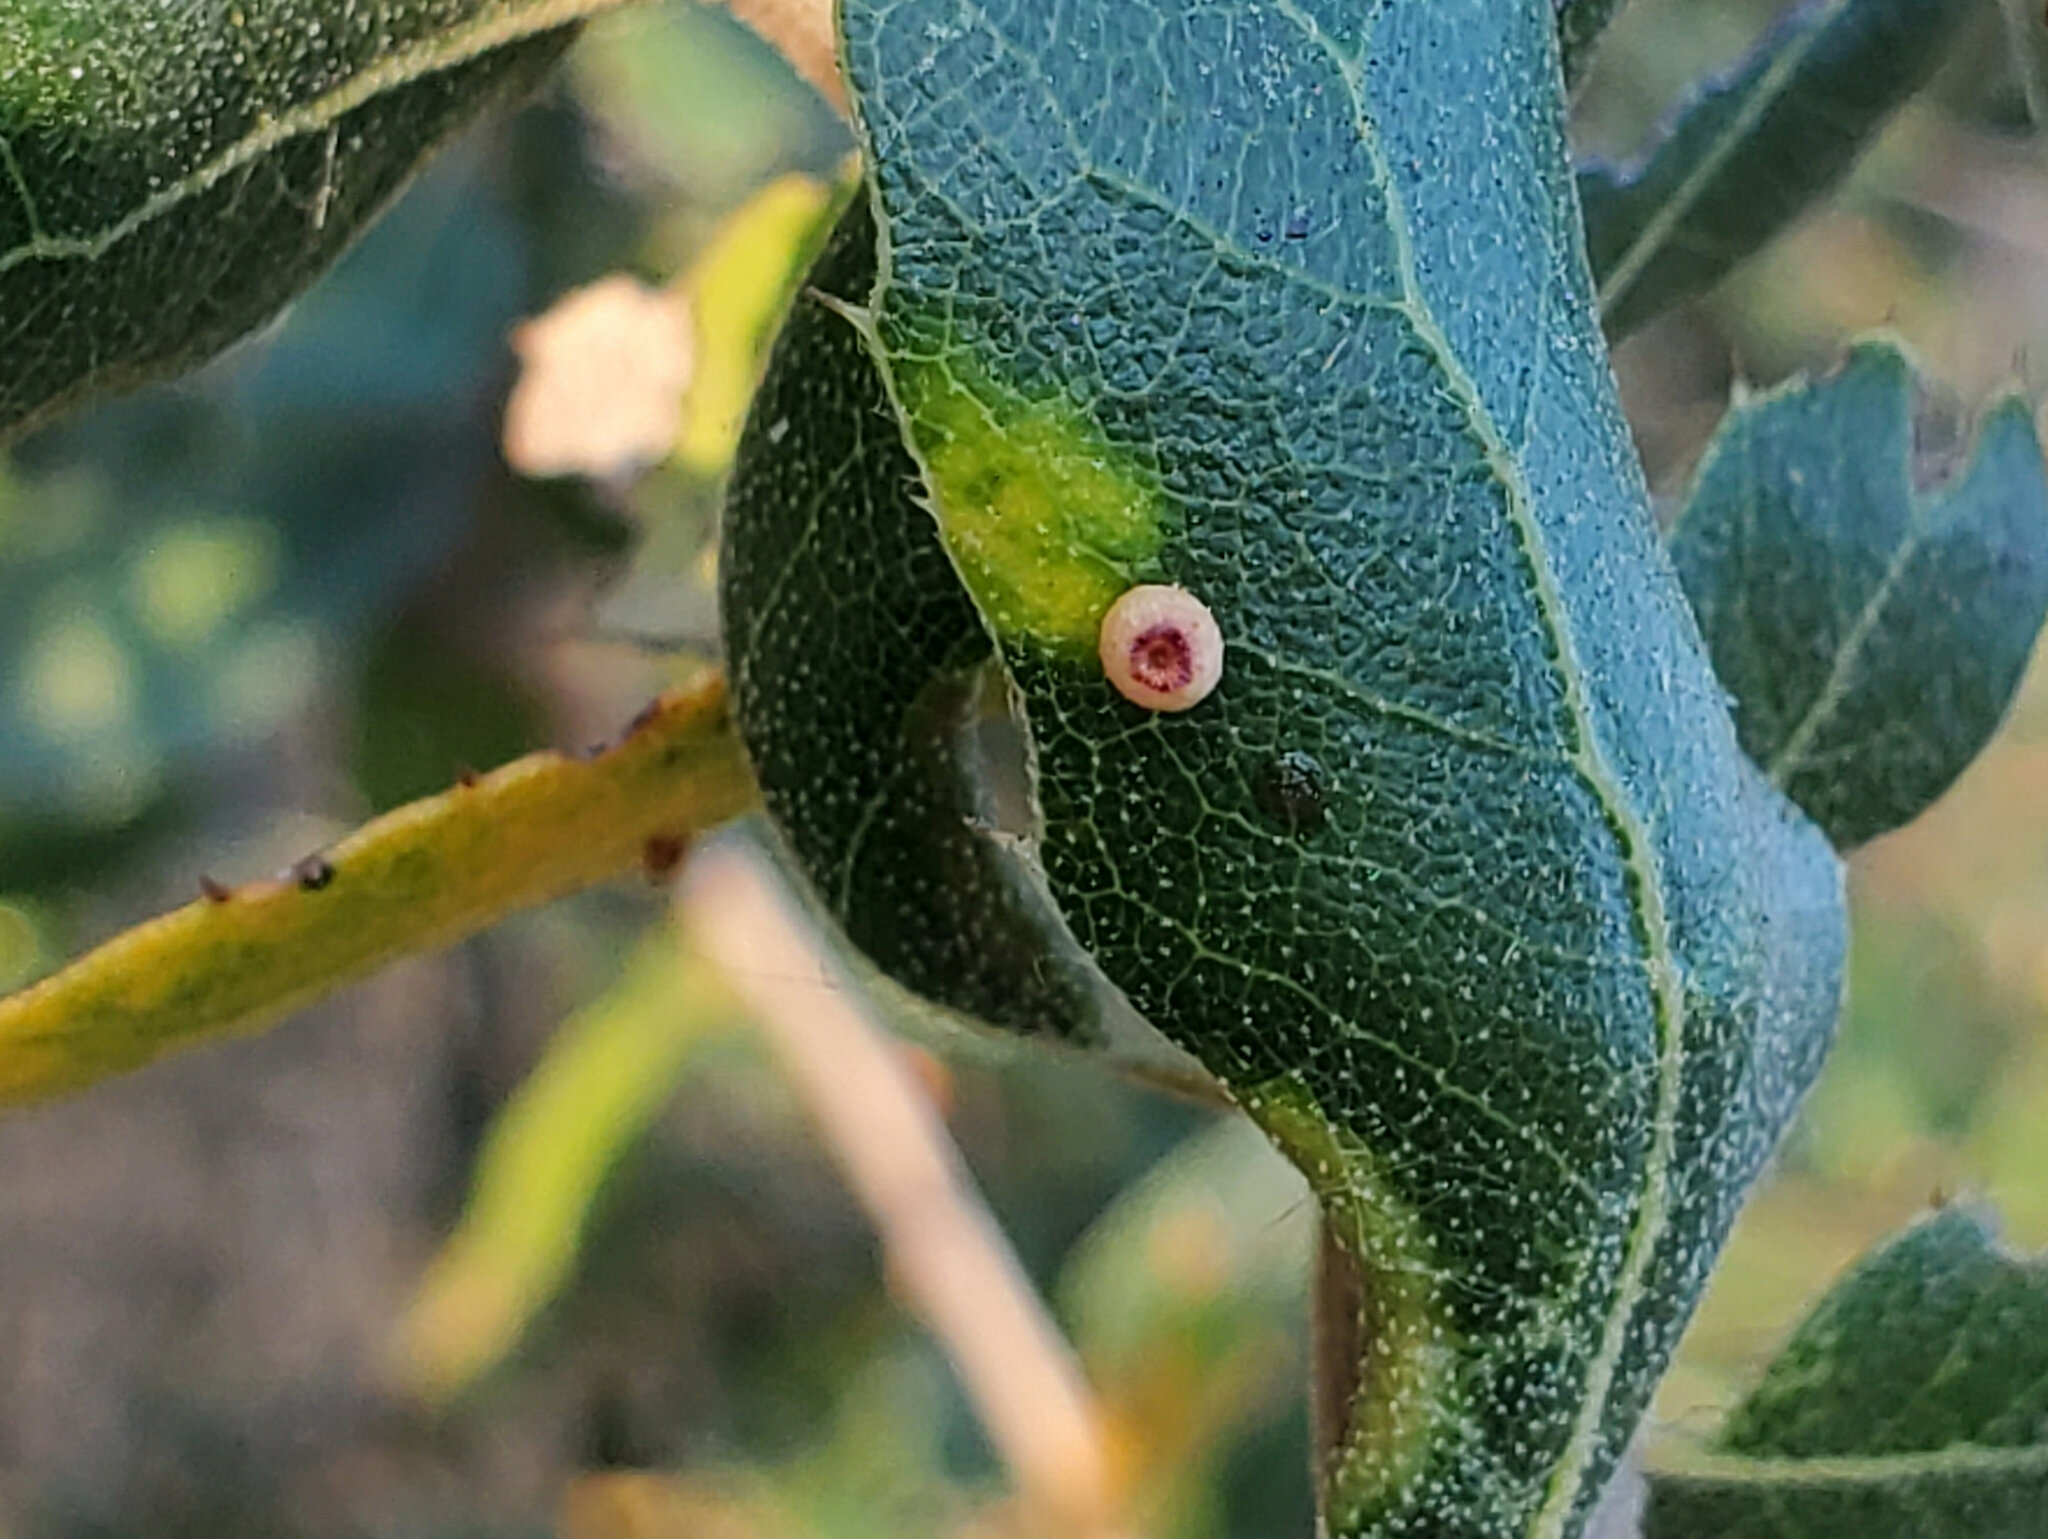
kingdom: Animalia
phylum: Arthropoda
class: Insecta
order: Hymenoptera
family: Cynipidae
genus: Dryocosmus
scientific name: Dryocosmus
